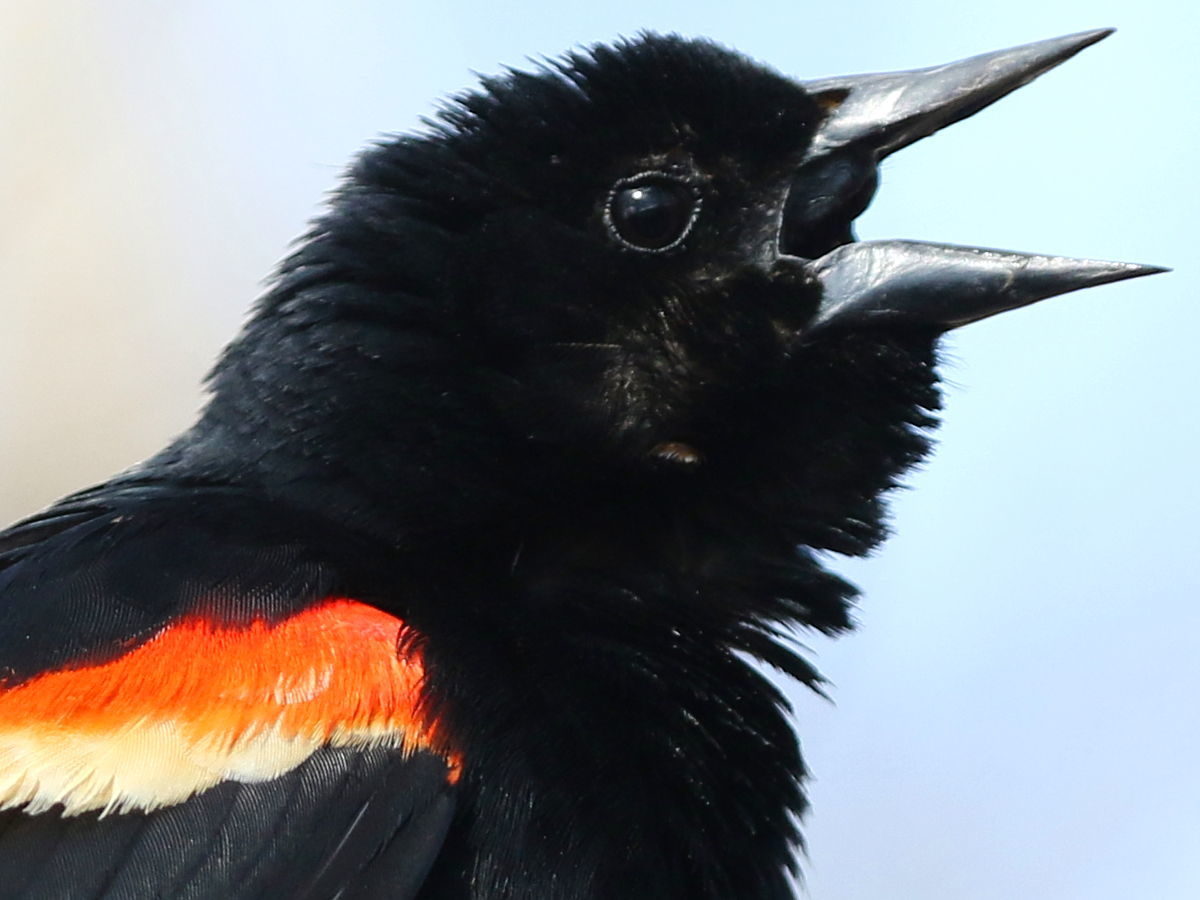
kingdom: Animalia
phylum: Chordata
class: Aves
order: Passeriformes
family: Icteridae
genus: Agelaius
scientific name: Agelaius phoeniceus
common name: Red-winged blackbird
